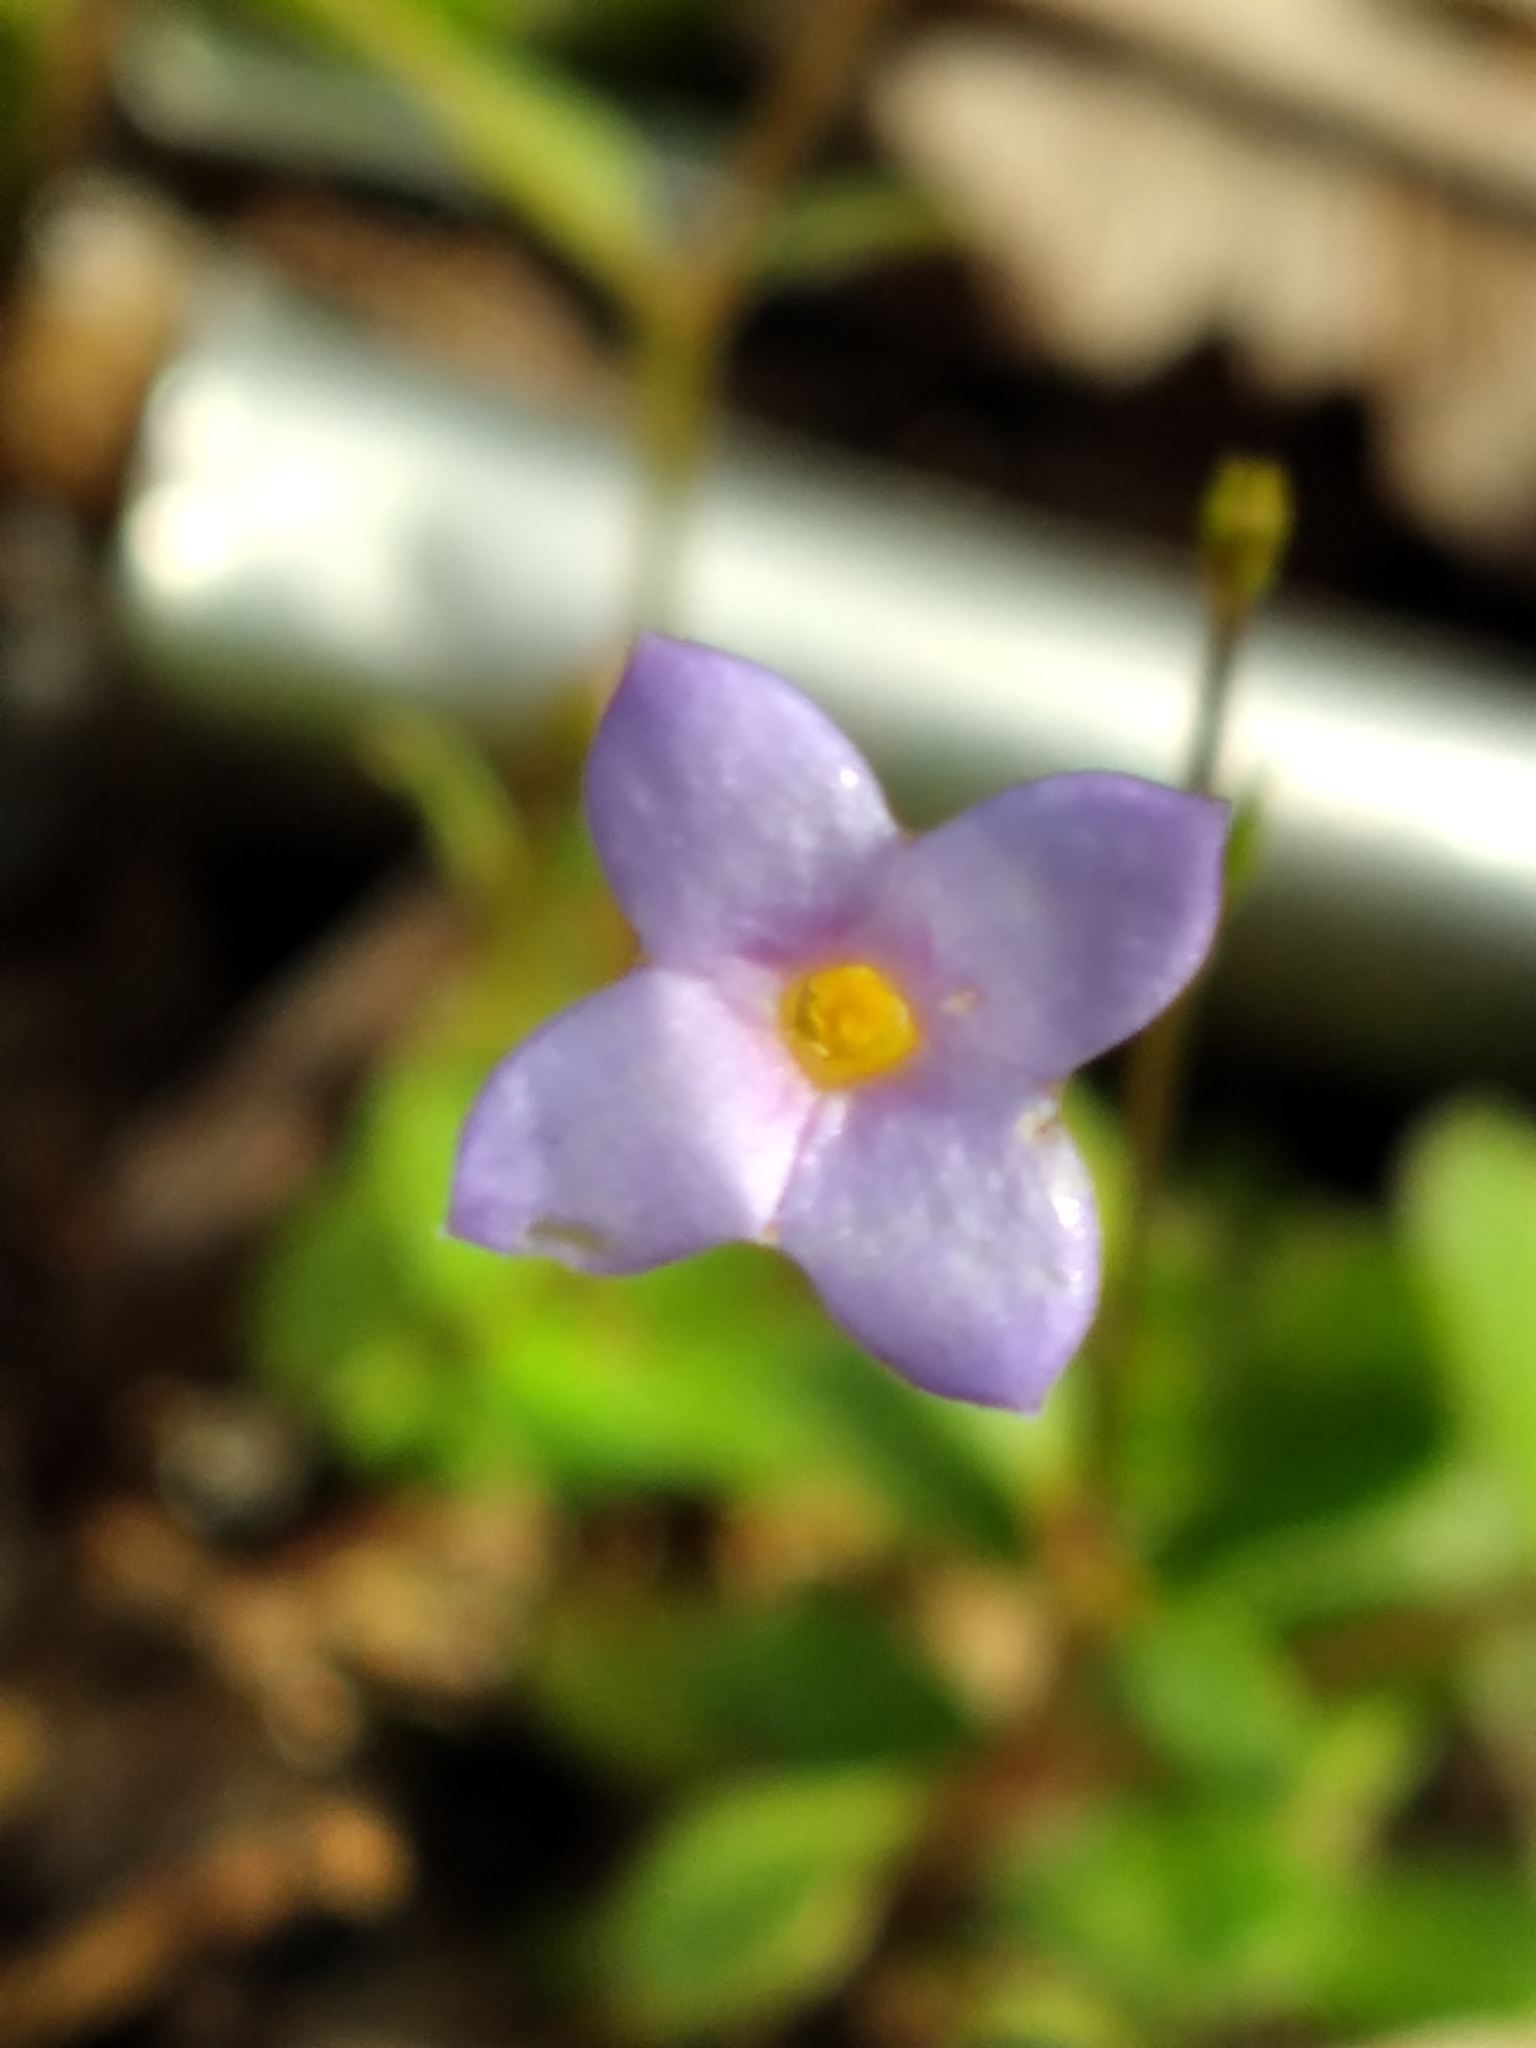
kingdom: Plantae
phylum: Tracheophyta
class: Magnoliopsida
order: Gentianales
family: Rubiaceae
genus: Houstonia
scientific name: Houstonia pusilla
